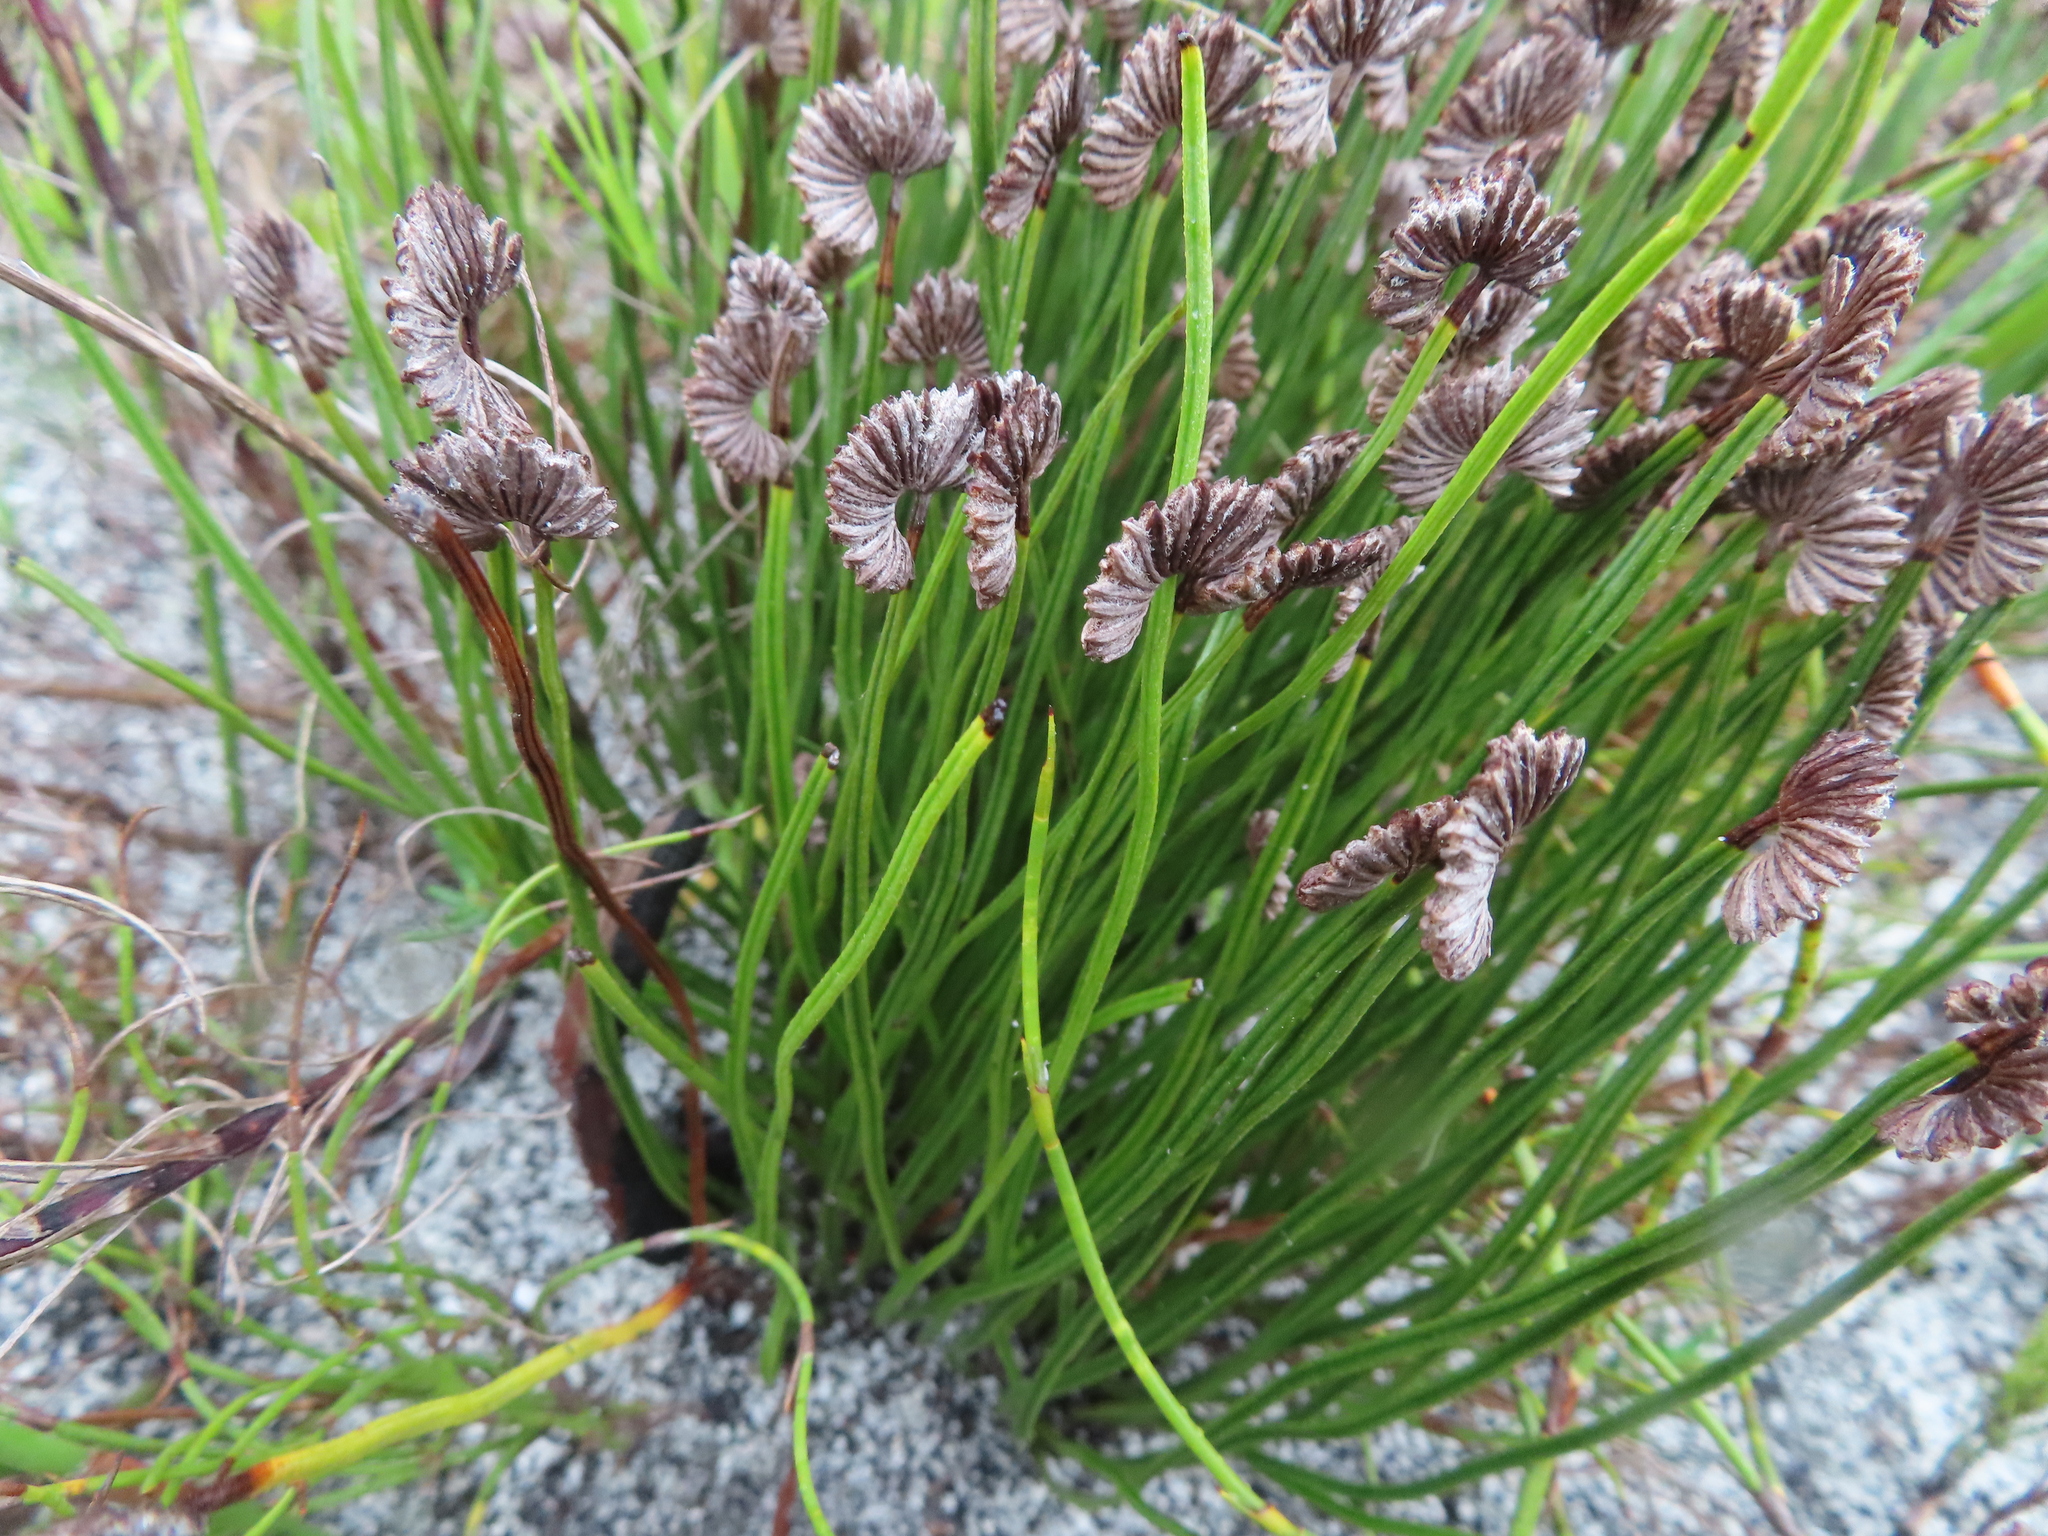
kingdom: Plantae
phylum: Tracheophyta
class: Polypodiopsida
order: Schizaeales
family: Schizaeaceae
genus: Schizaea
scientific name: Schizaea pectinata
